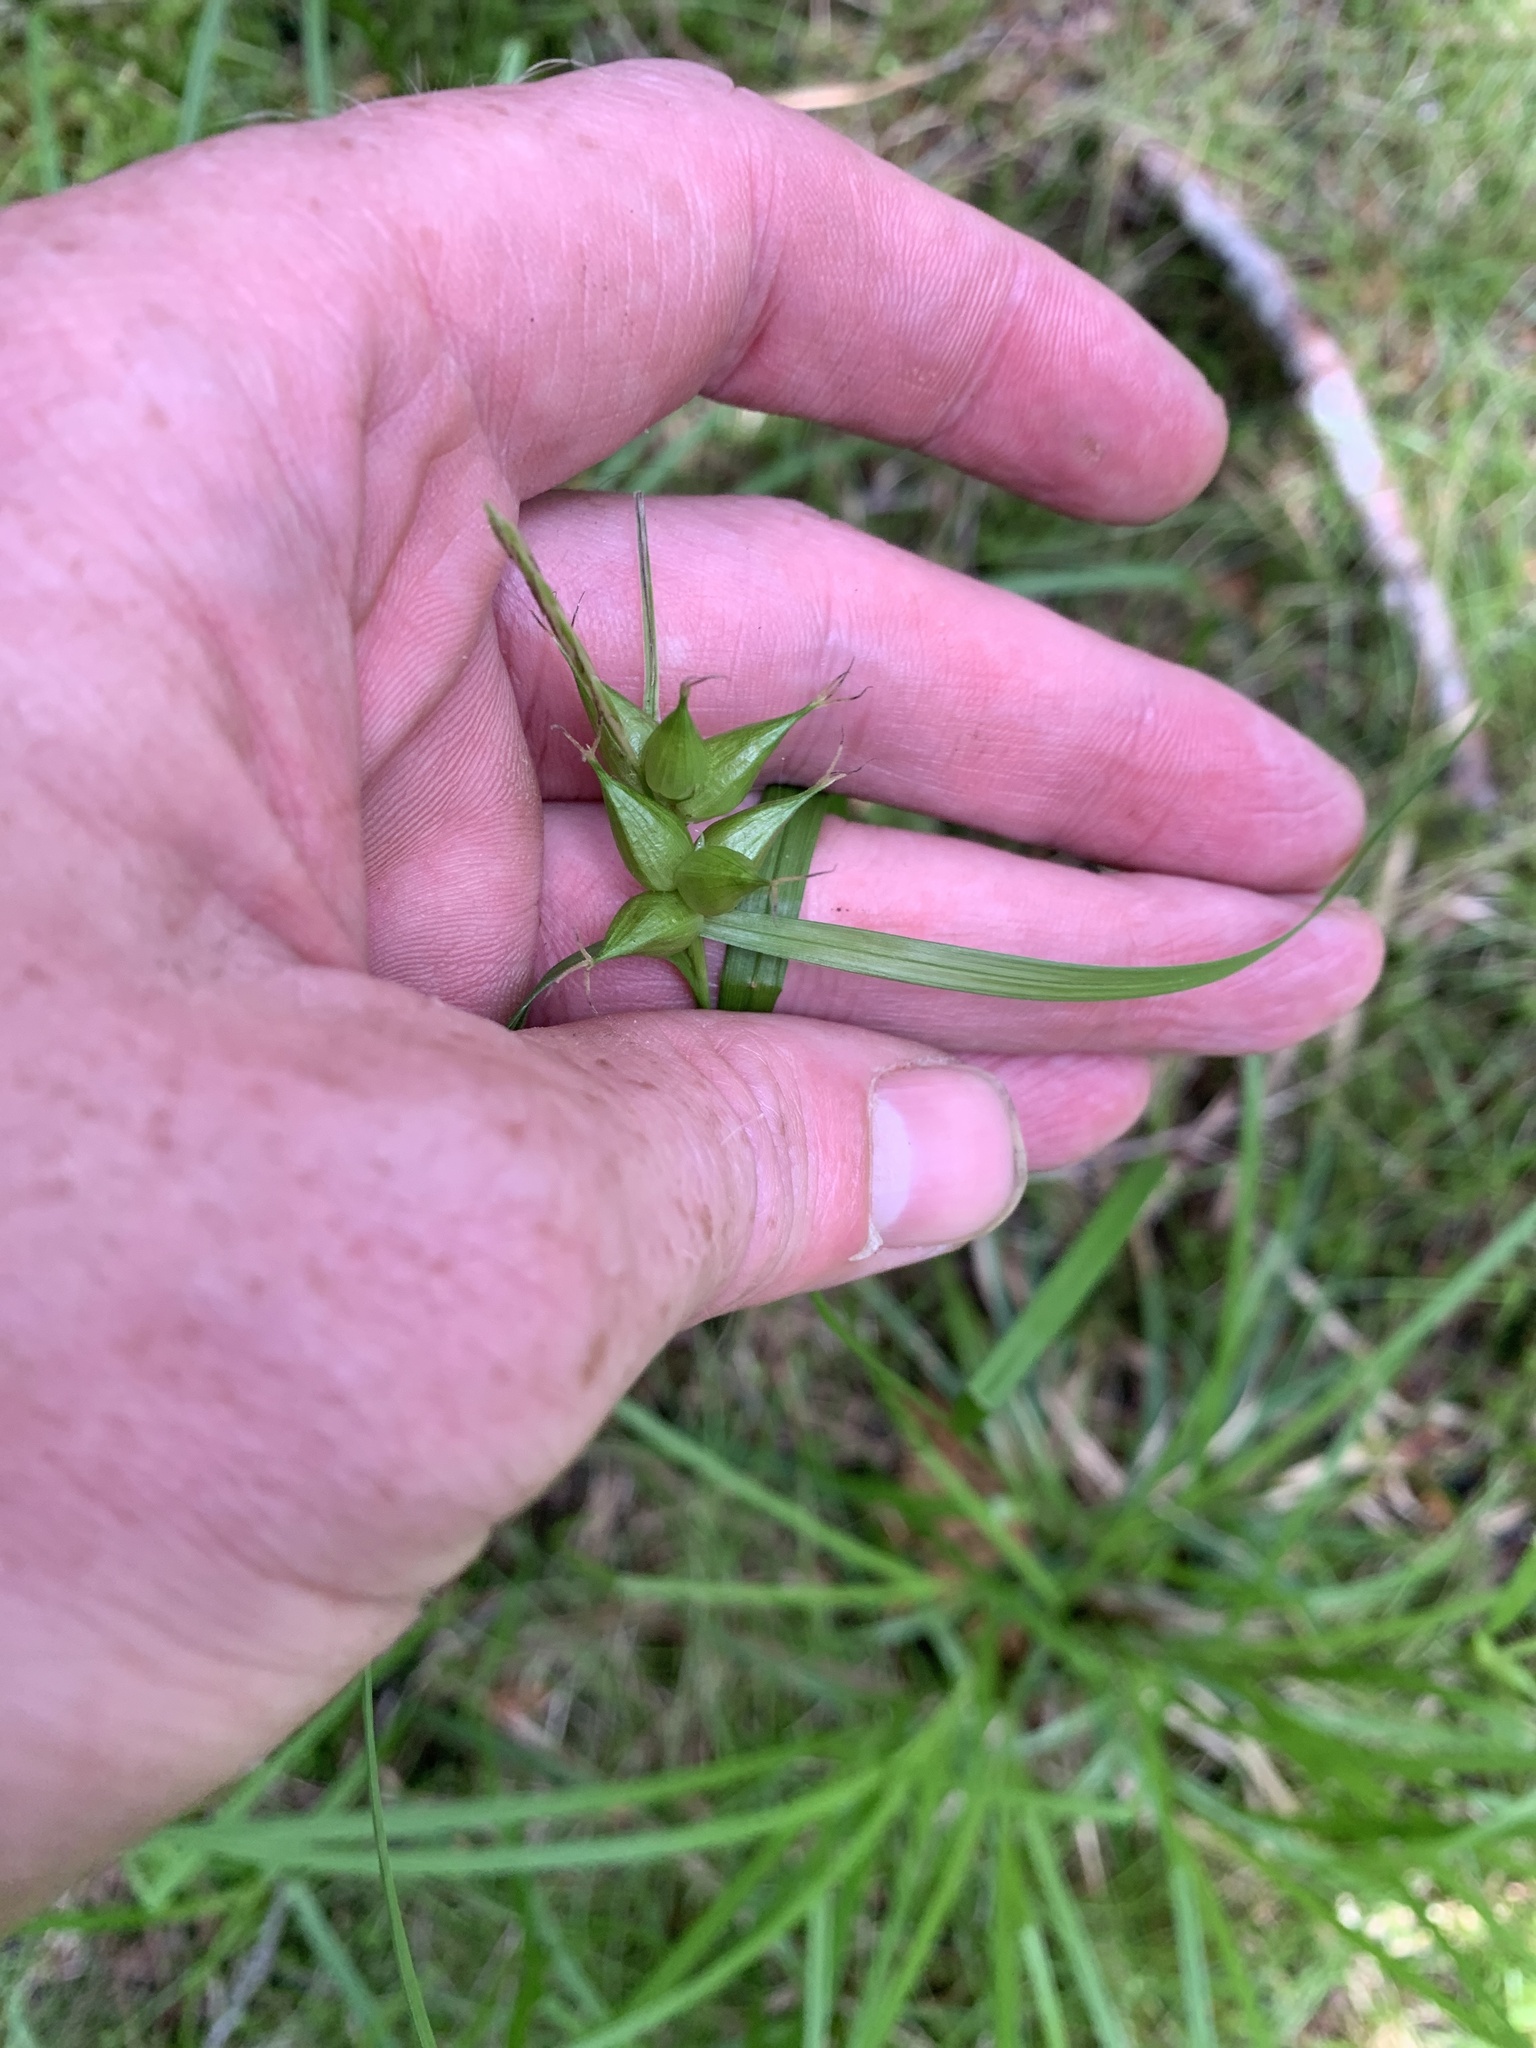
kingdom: Plantae
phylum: Tracheophyta
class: Liliopsida
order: Poales
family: Cyperaceae
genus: Carex
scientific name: Carex intumescens
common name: Greater bladder sedge
